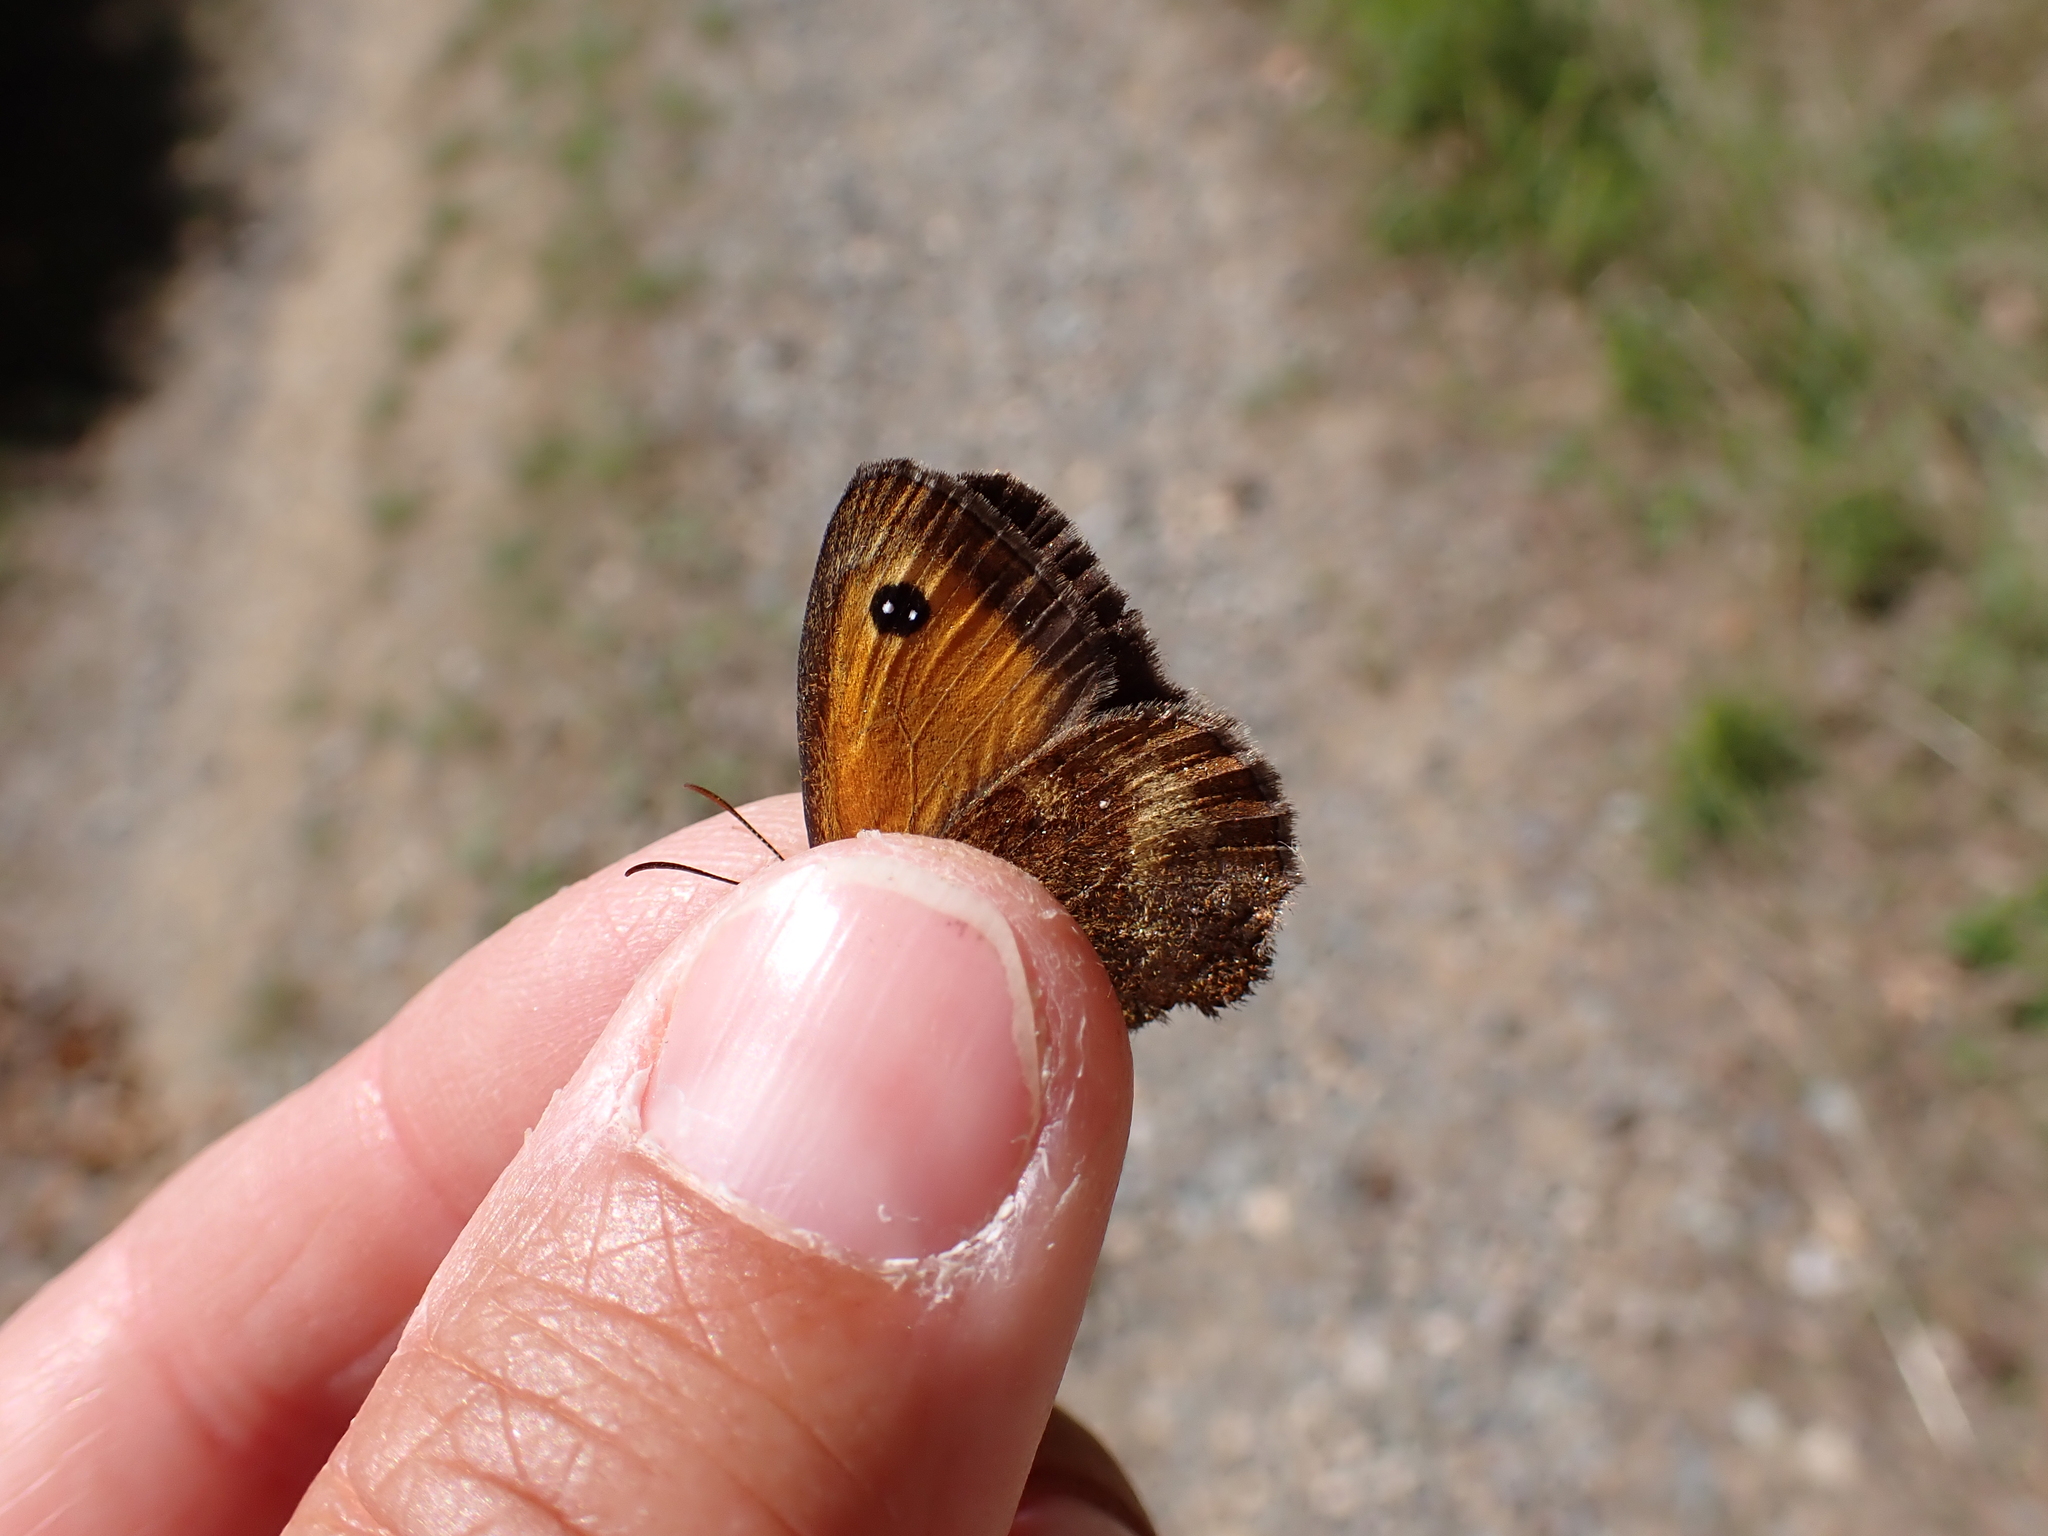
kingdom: Animalia
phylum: Arthropoda
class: Insecta
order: Lepidoptera
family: Nymphalidae
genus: Pyronia
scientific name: Pyronia tithonus
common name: Gatekeeper
